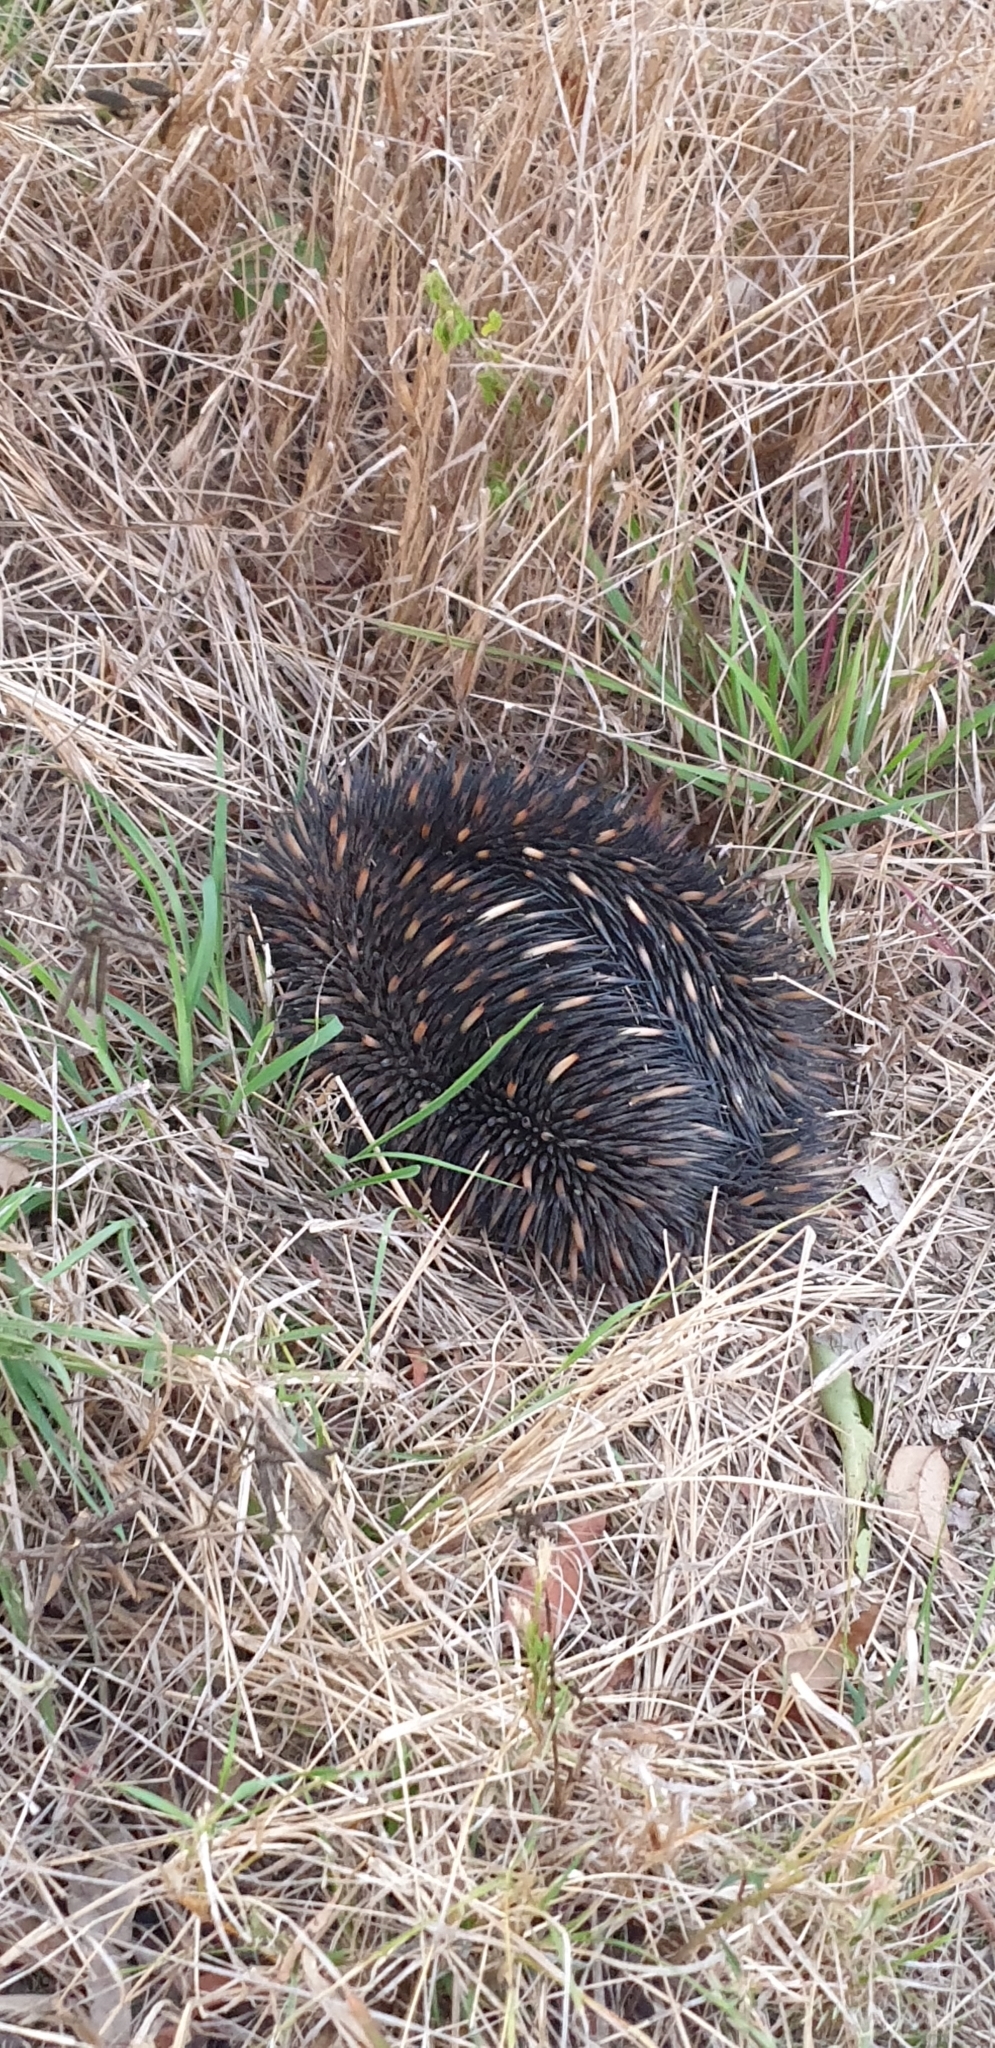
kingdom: Animalia
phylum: Chordata
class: Mammalia
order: Monotremata
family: Tachyglossidae
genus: Tachyglossus
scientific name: Tachyglossus aculeatus
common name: Short-beaked echidna
